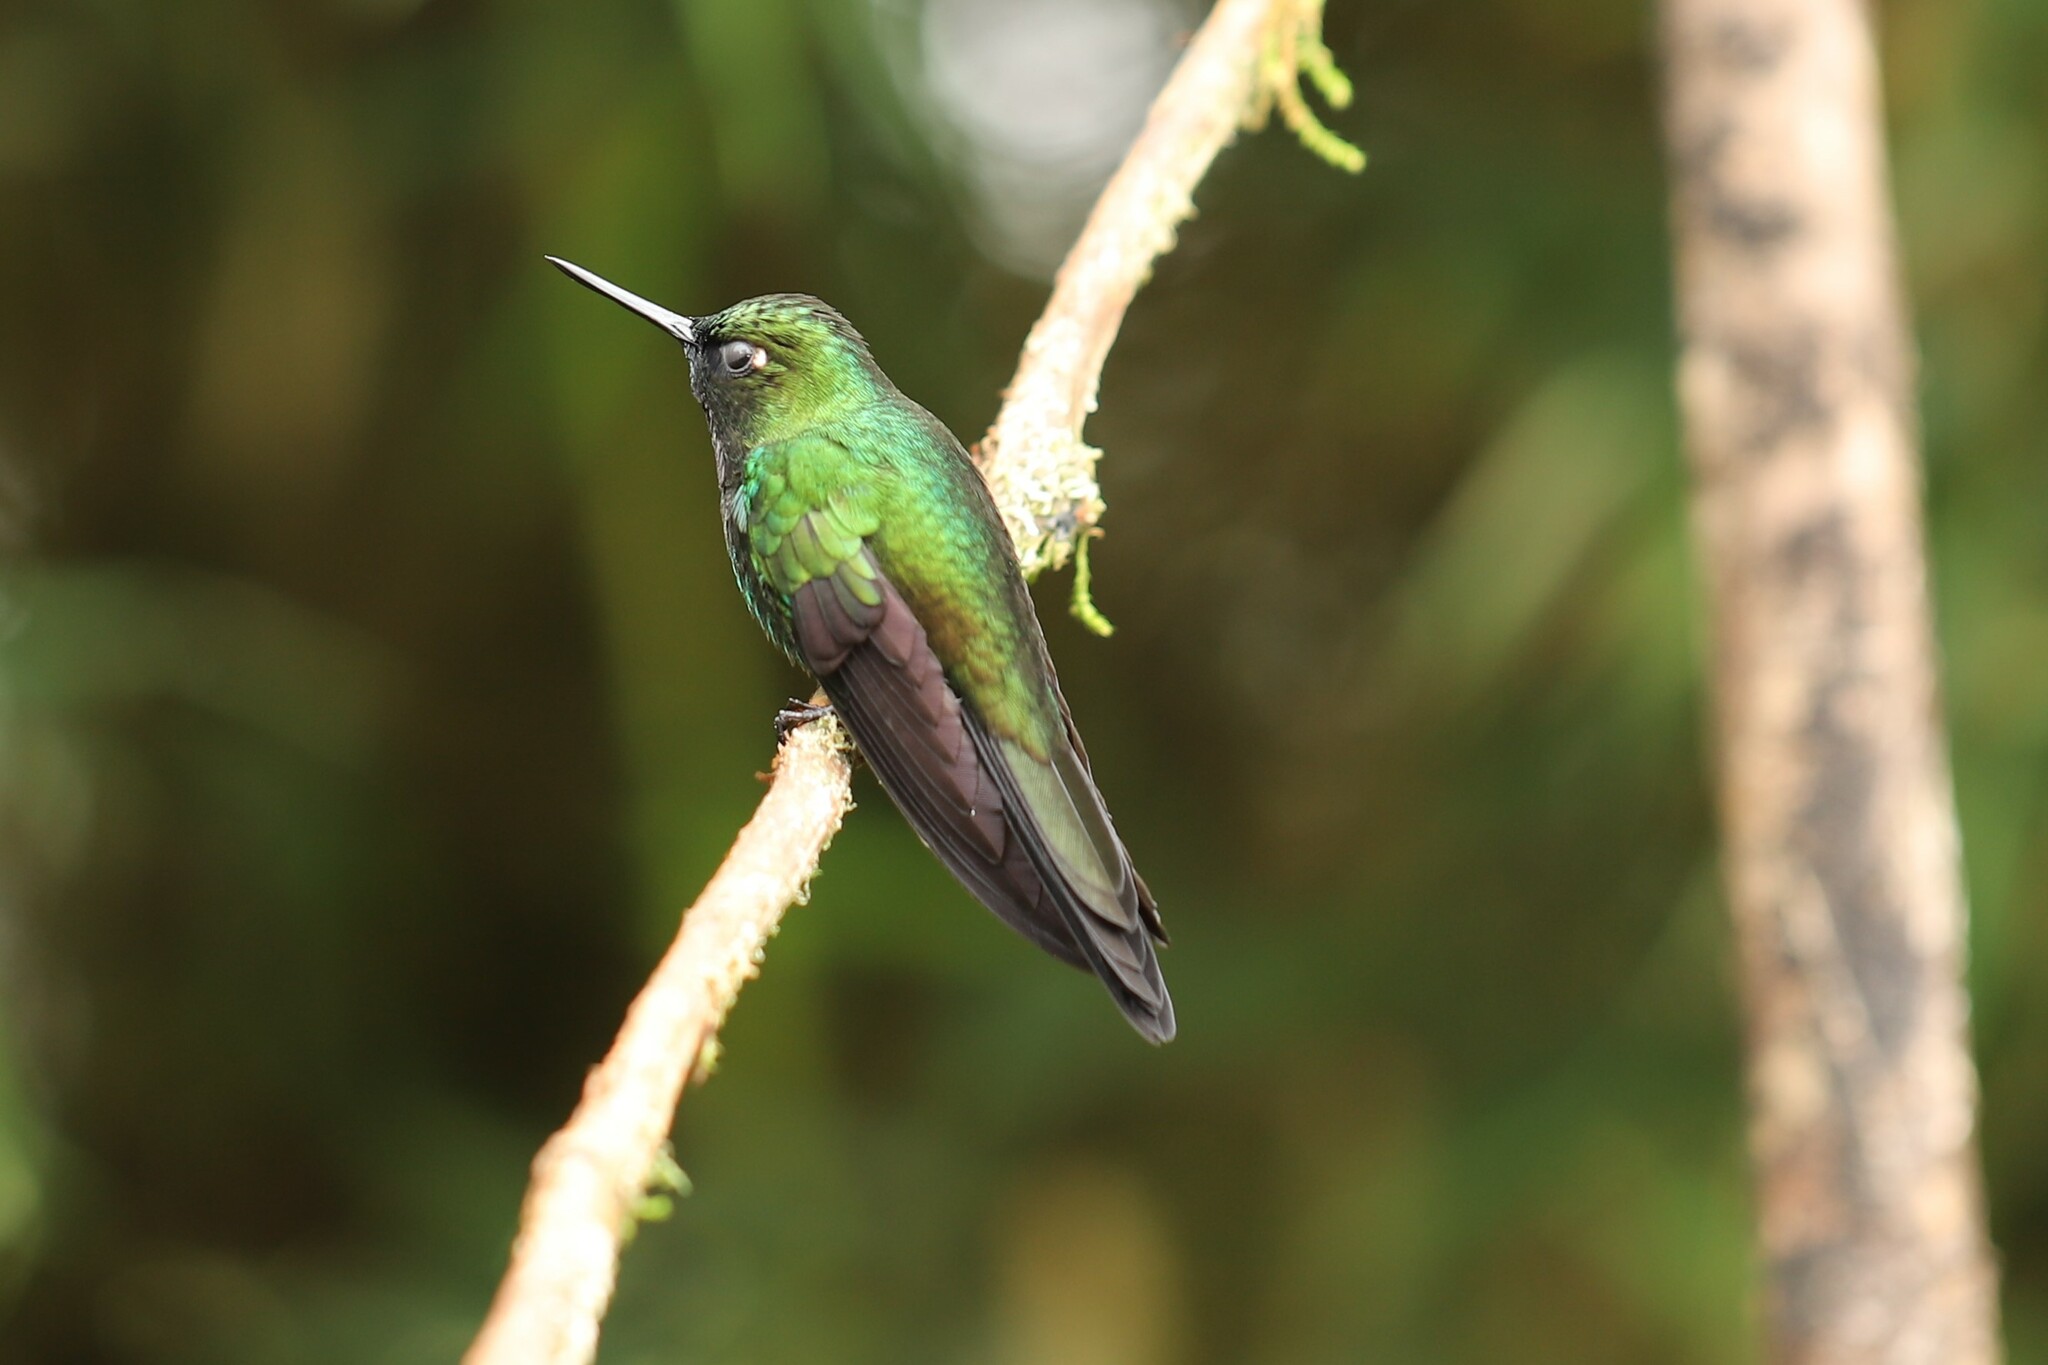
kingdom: Animalia
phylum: Chordata
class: Aves
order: Apodiformes
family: Trochilidae
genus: Heliangelus
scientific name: Heliangelus exortis
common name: Tourmaline sunangel
